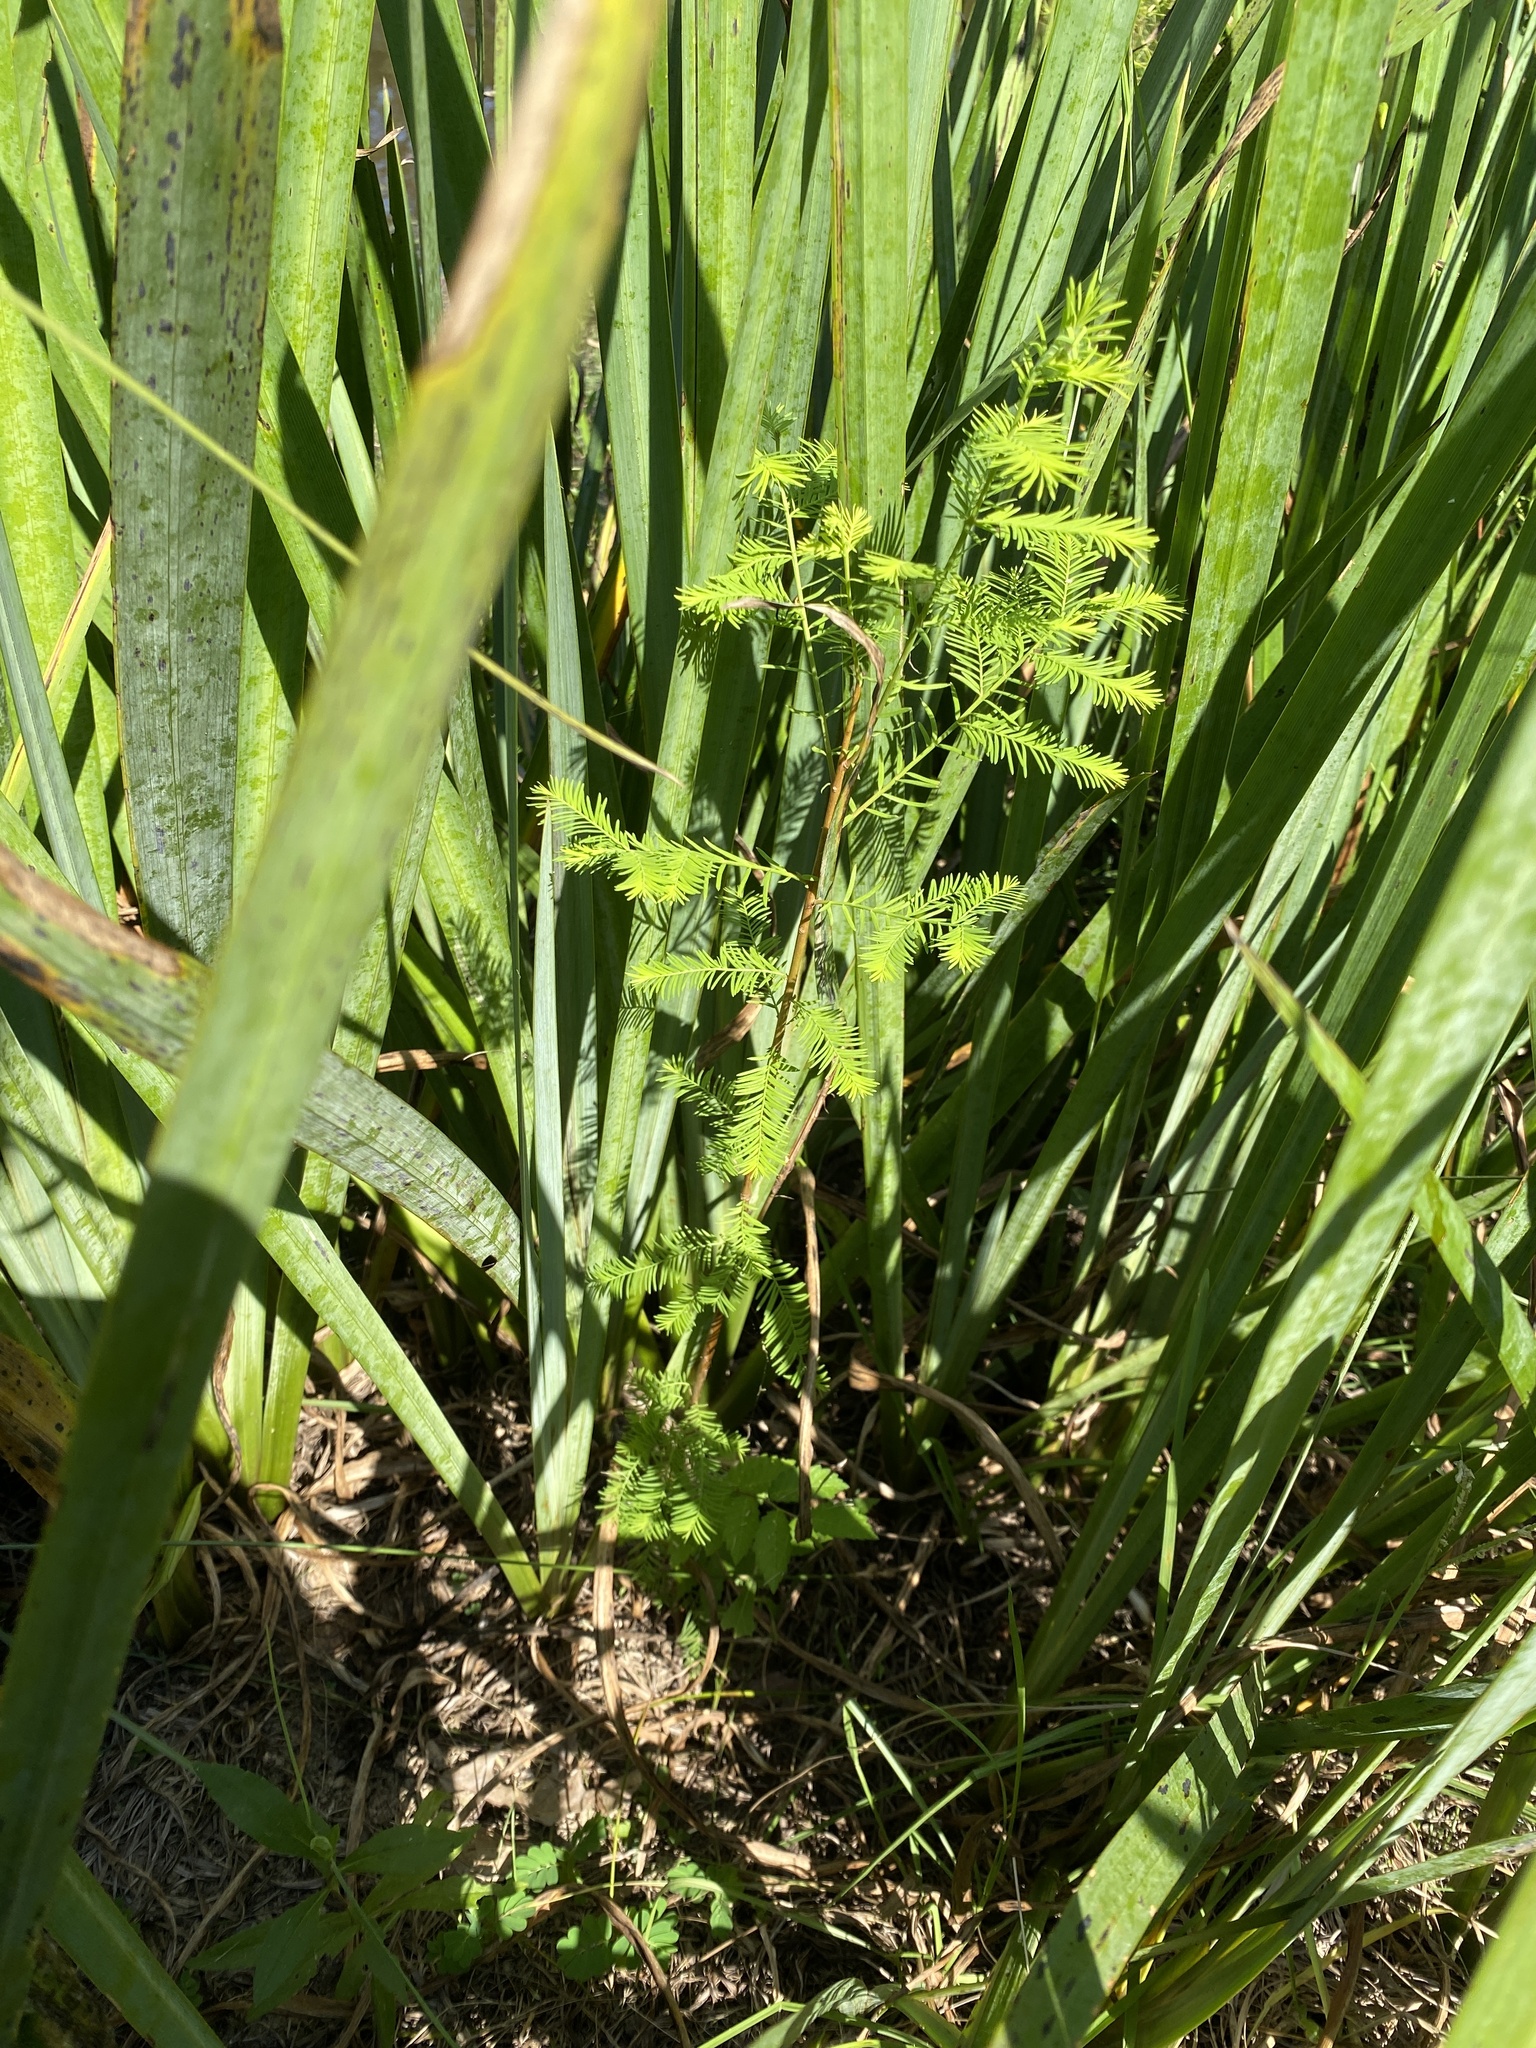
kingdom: Plantae
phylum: Tracheophyta
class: Pinopsida
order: Pinales
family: Cupressaceae
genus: Taxodium
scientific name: Taxodium distichum
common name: Bald cypress
